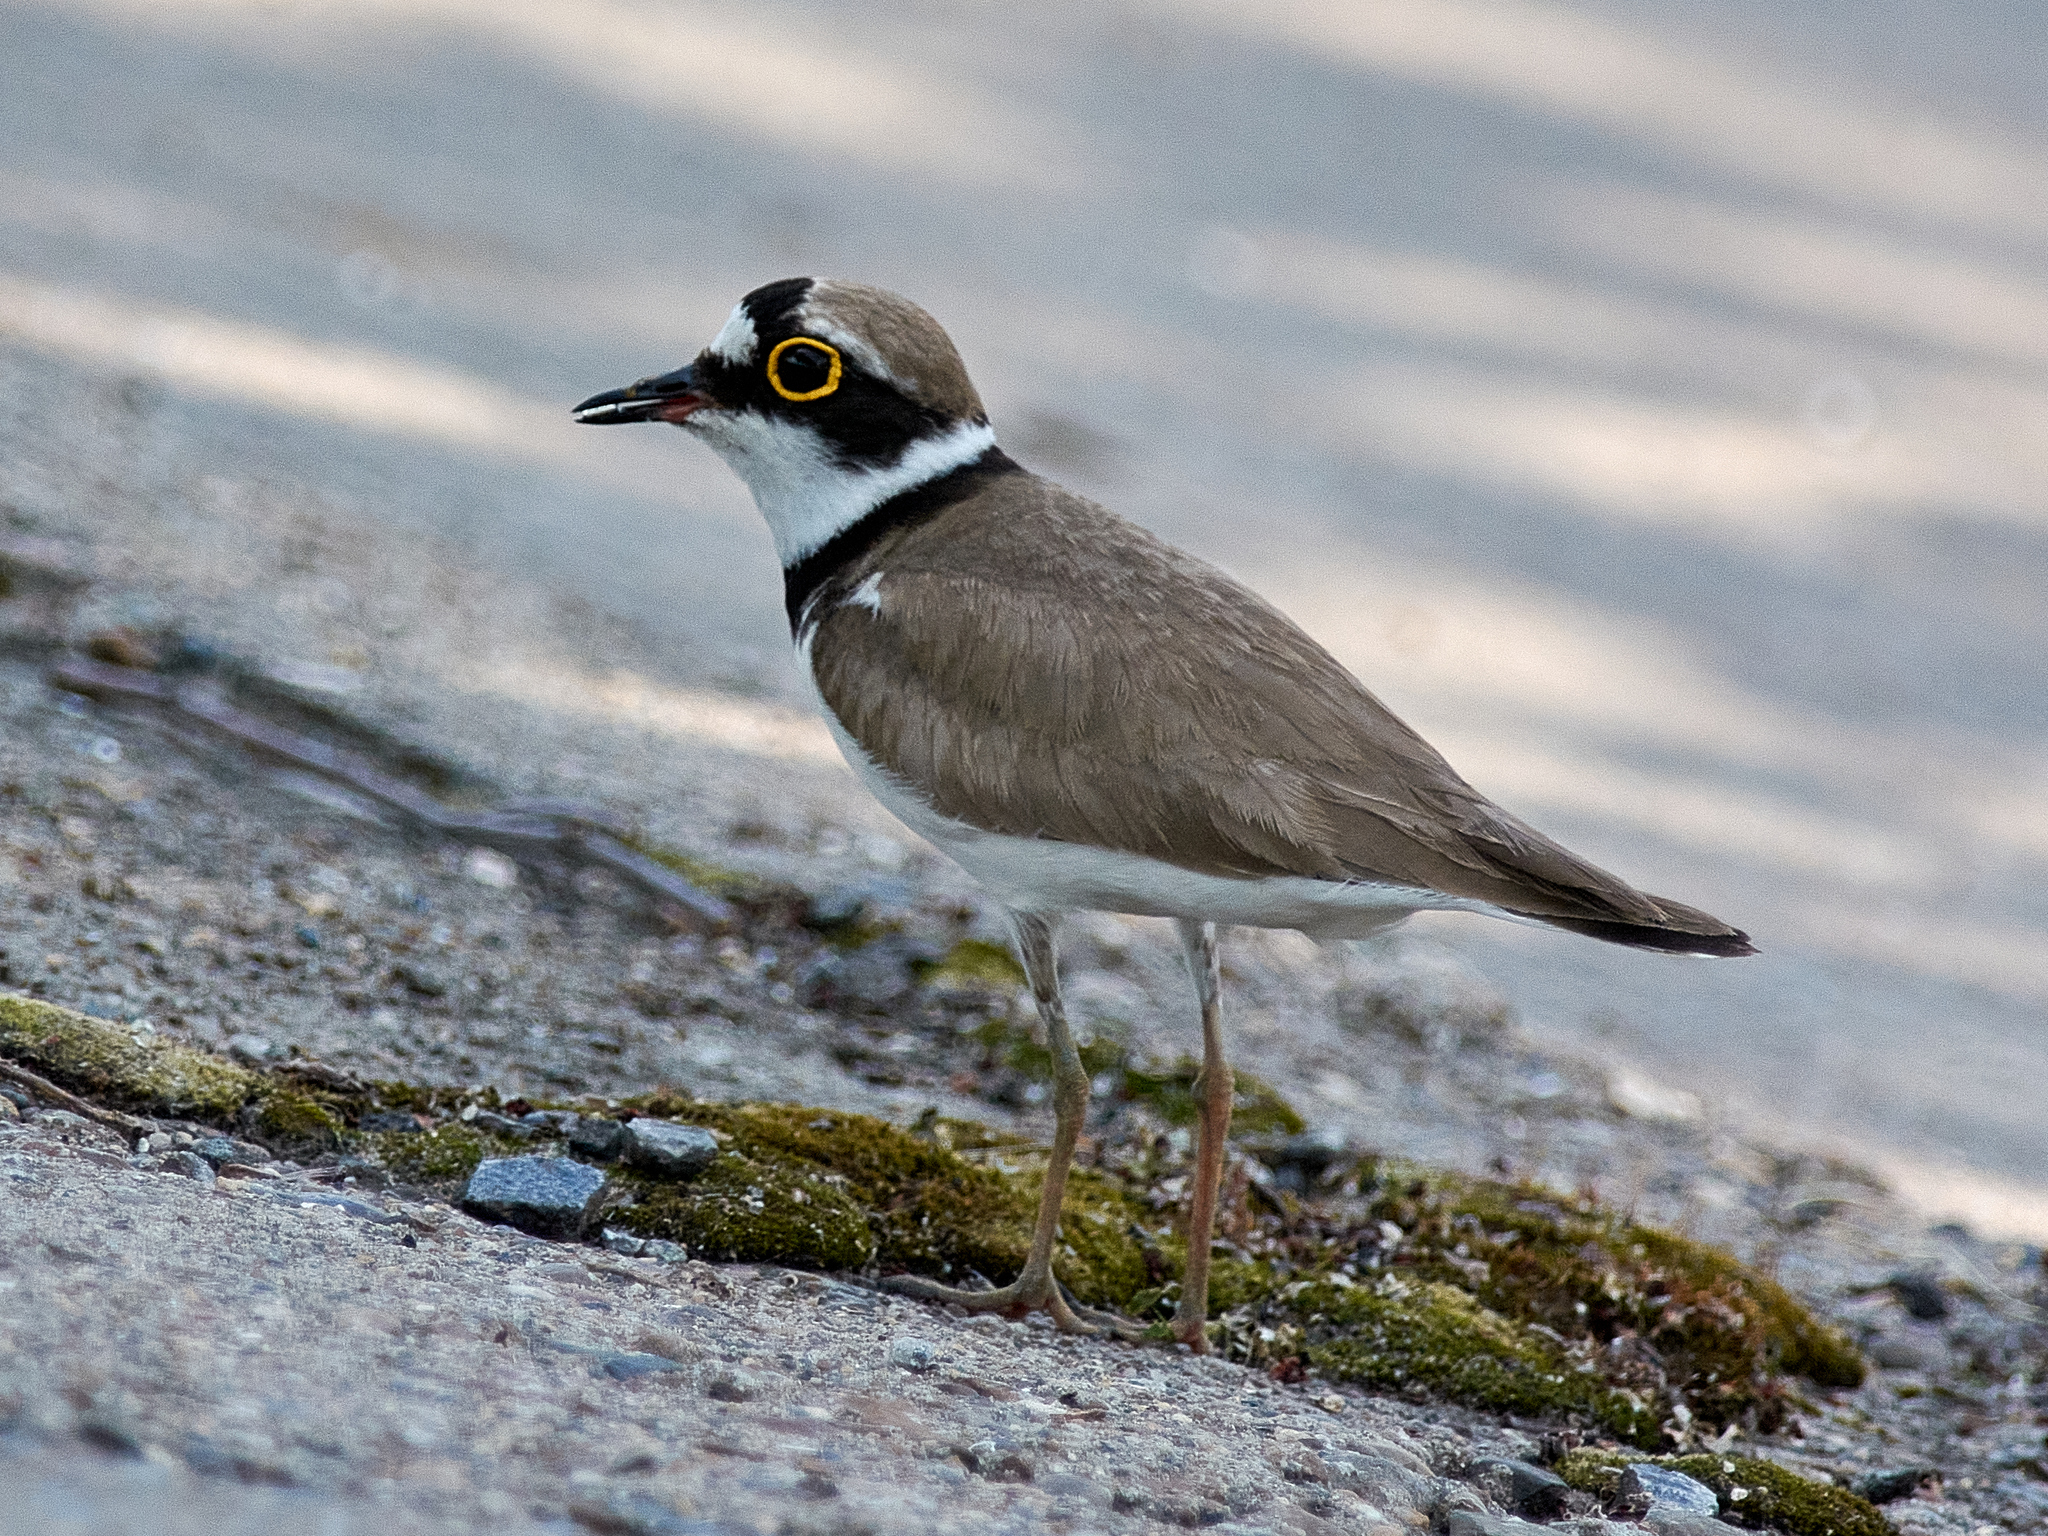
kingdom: Animalia
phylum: Chordata
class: Aves
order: Charadriiformes
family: Charadriidae
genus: Charadrius
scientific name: Charadrius dubius
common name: Little ringed plover
